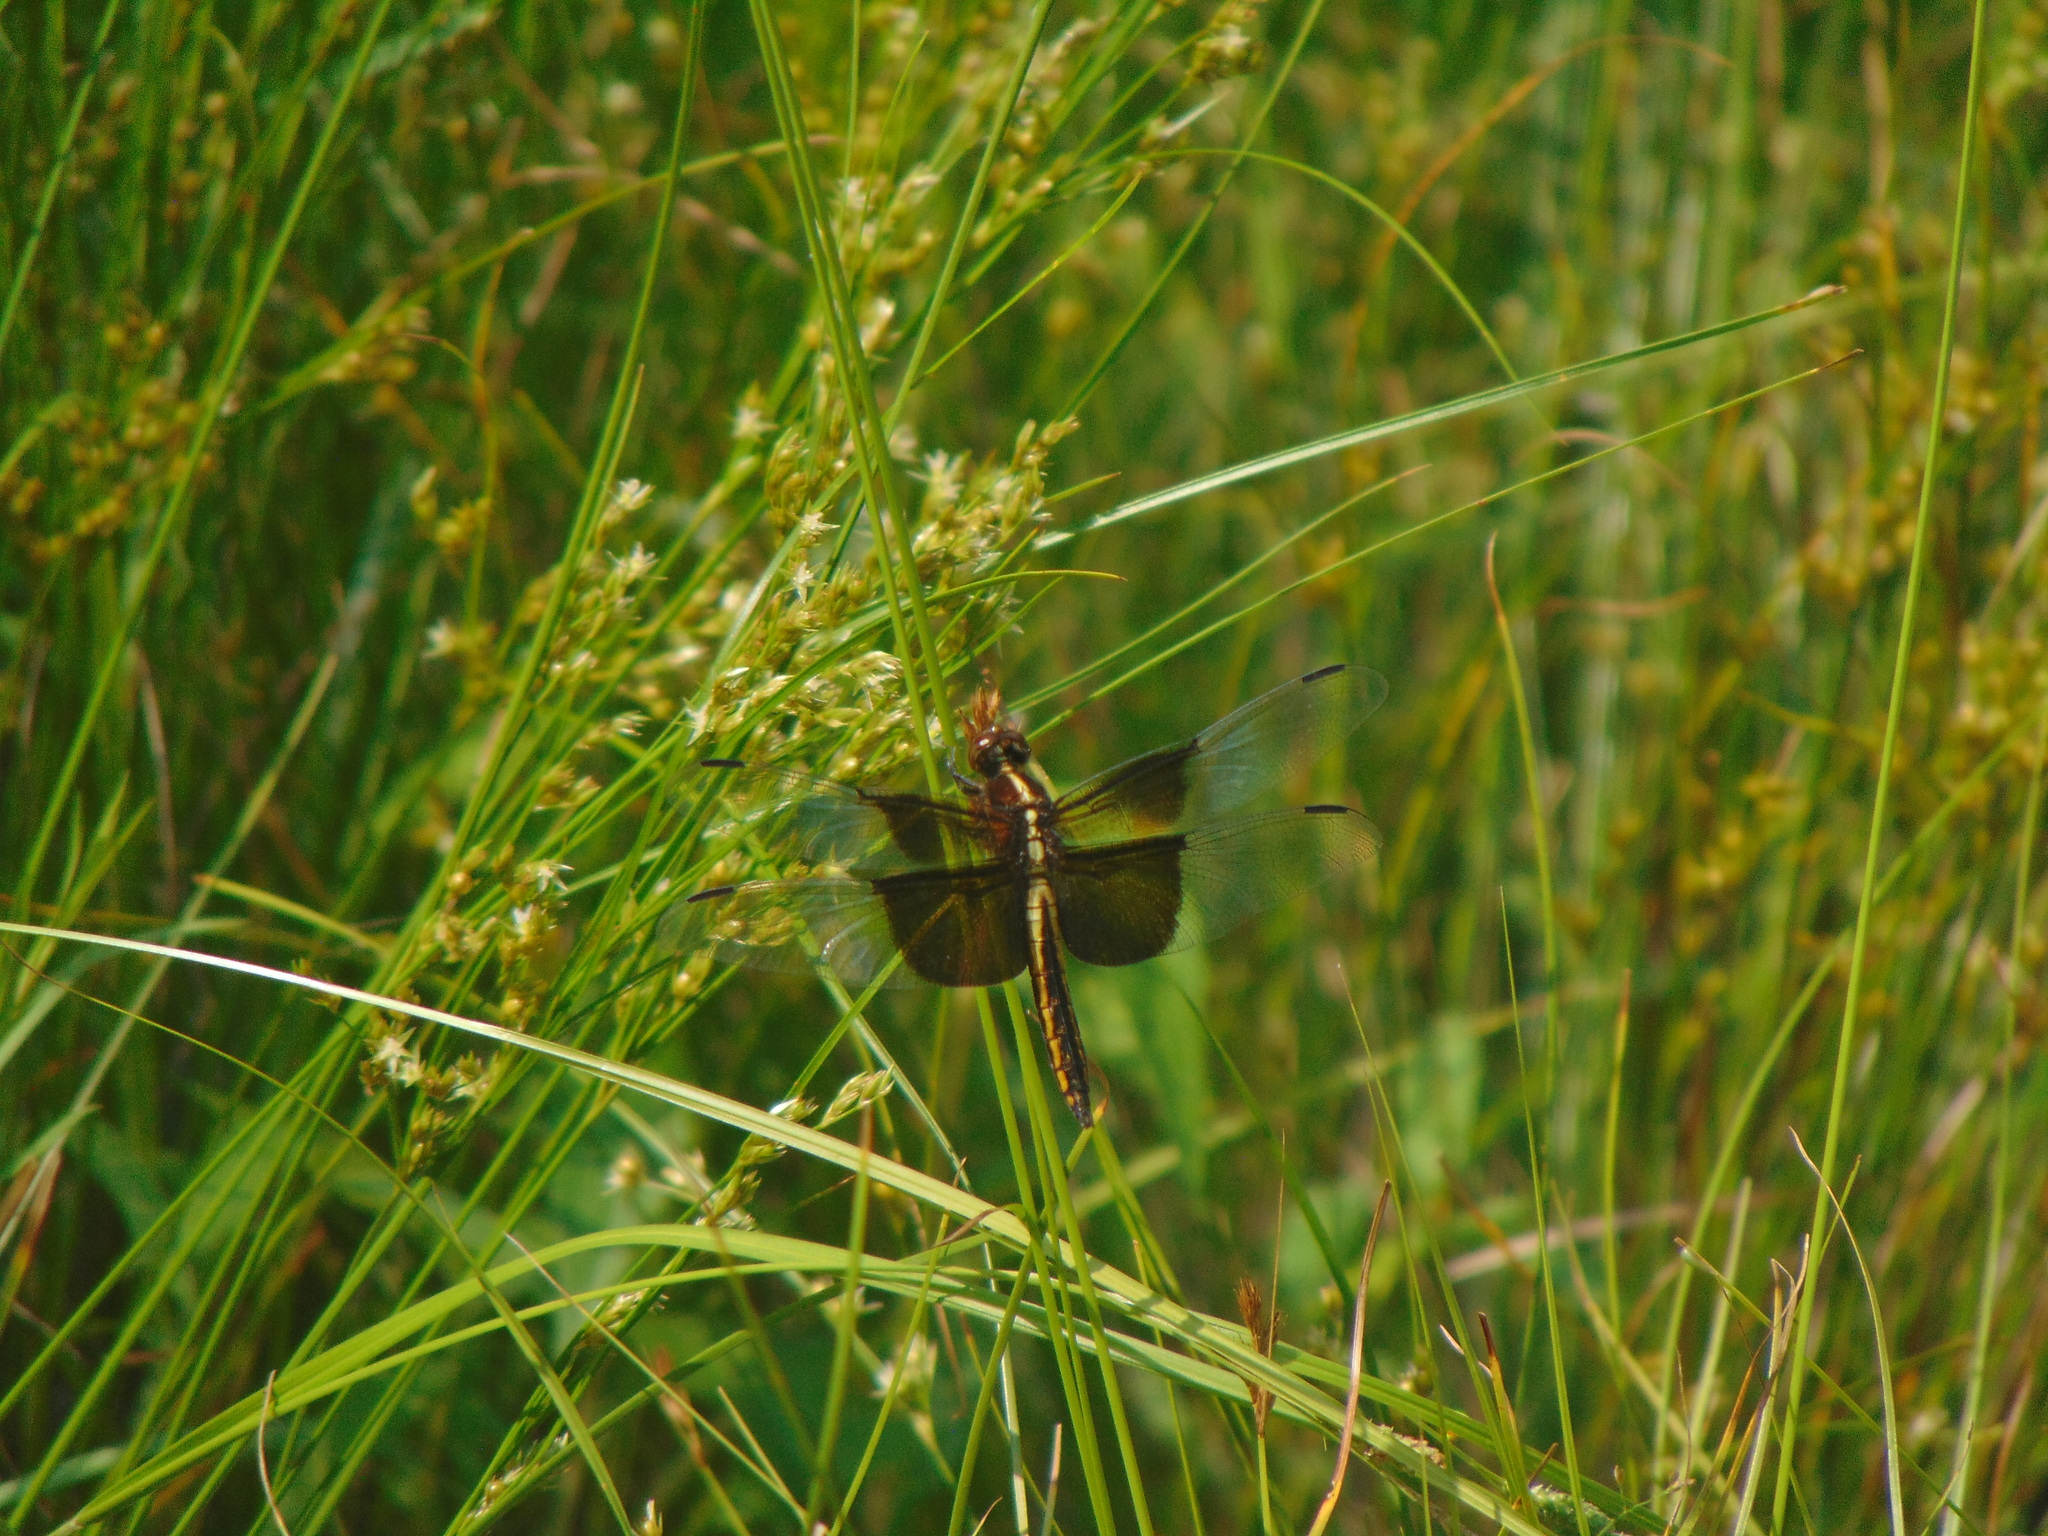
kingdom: Animalia
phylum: Arthropoda
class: Insecta
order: Odonata
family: Libellulidae
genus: Libellula
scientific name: Libellula luctuosa
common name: Widow skimmer
